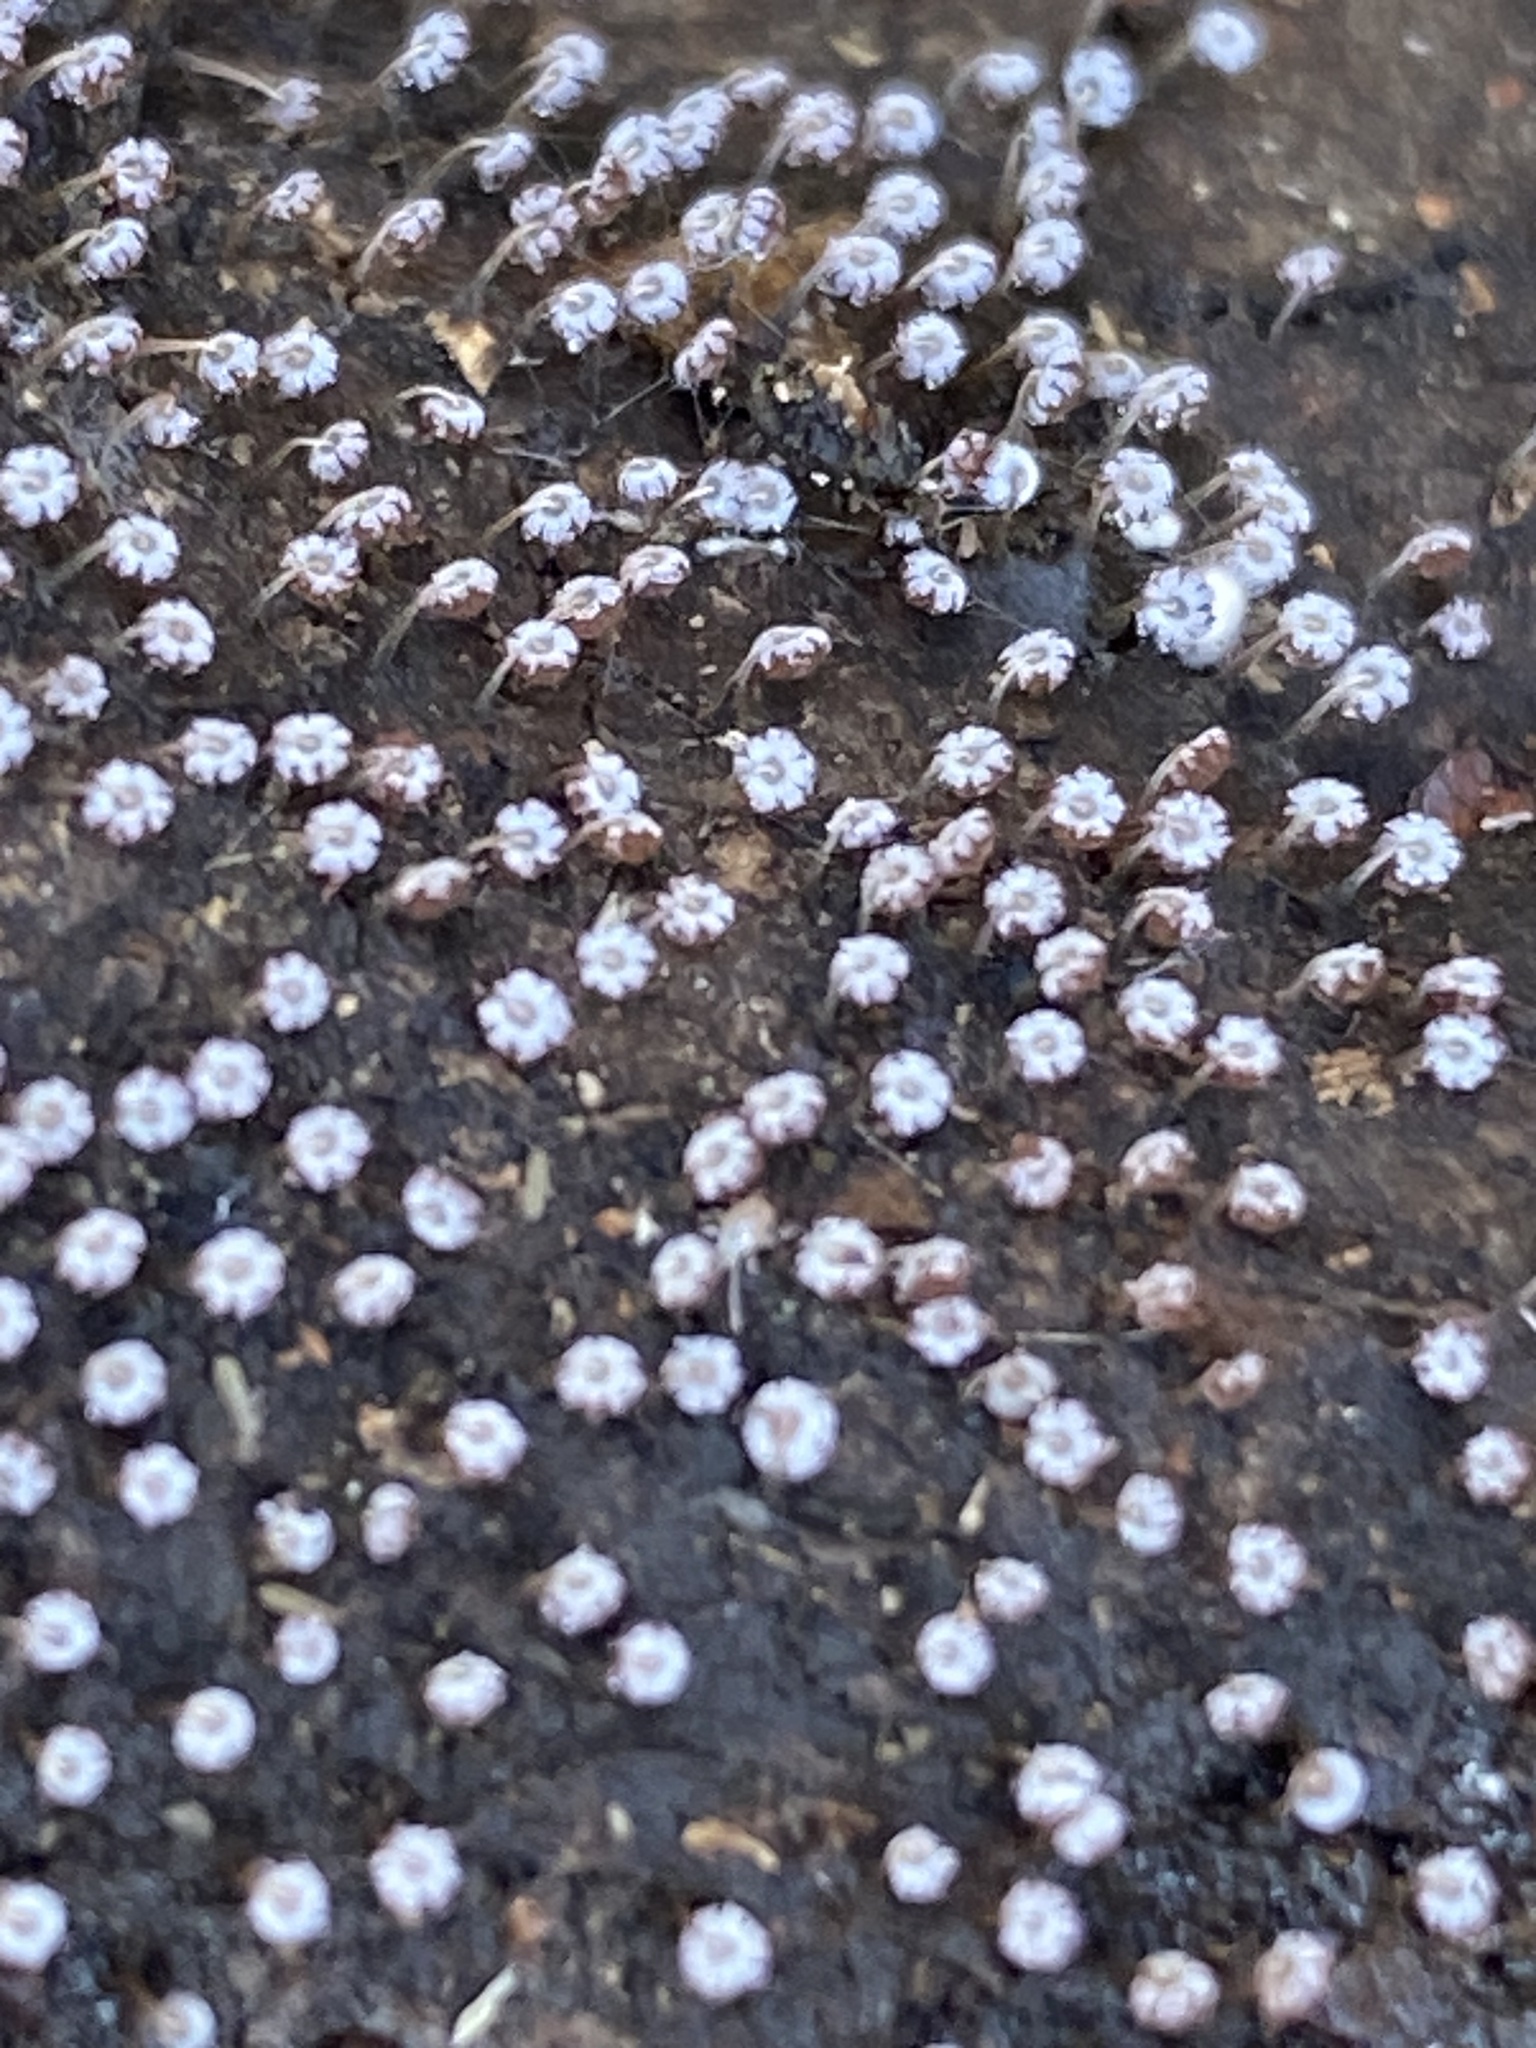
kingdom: Protozoa
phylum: Mycetozoa
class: Myxomycetes
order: Physarales
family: Physaraceae
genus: Physarum
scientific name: Physarum album
